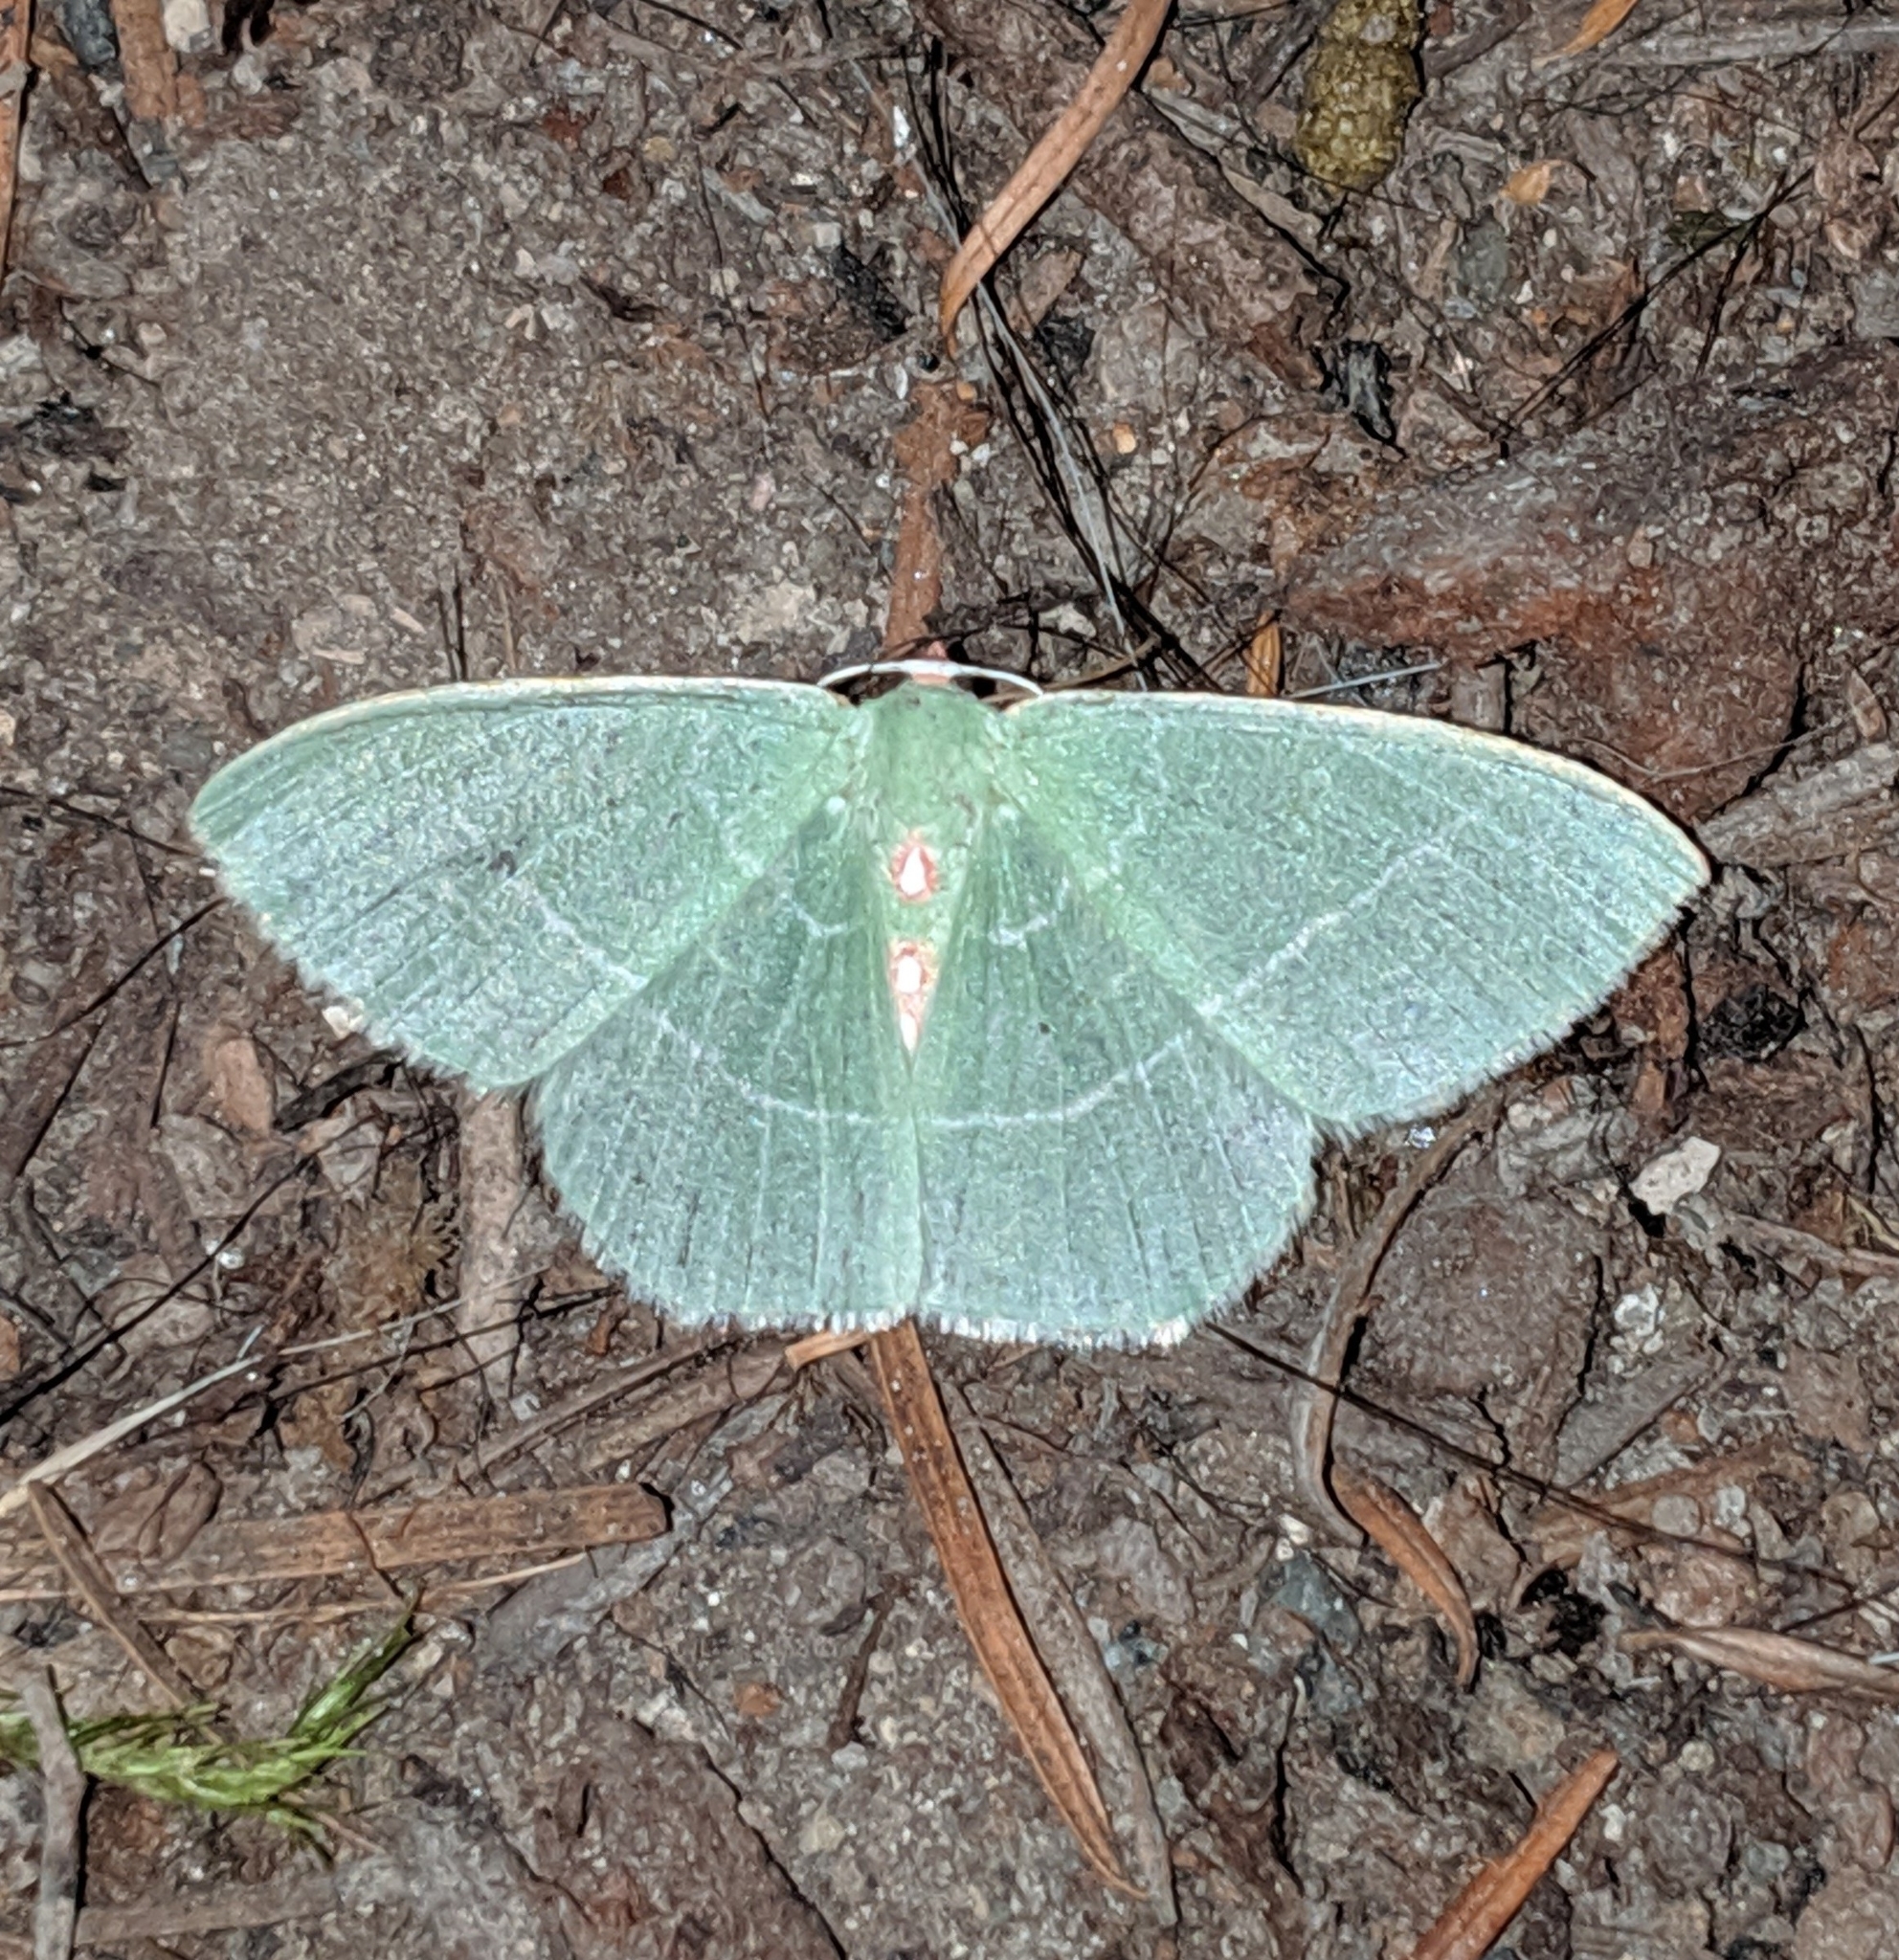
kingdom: Animalia
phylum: Arthropoda
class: Insecta
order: Lepidoptera
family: Geometridae
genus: Nemoria
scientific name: Nemoria darwiniata
